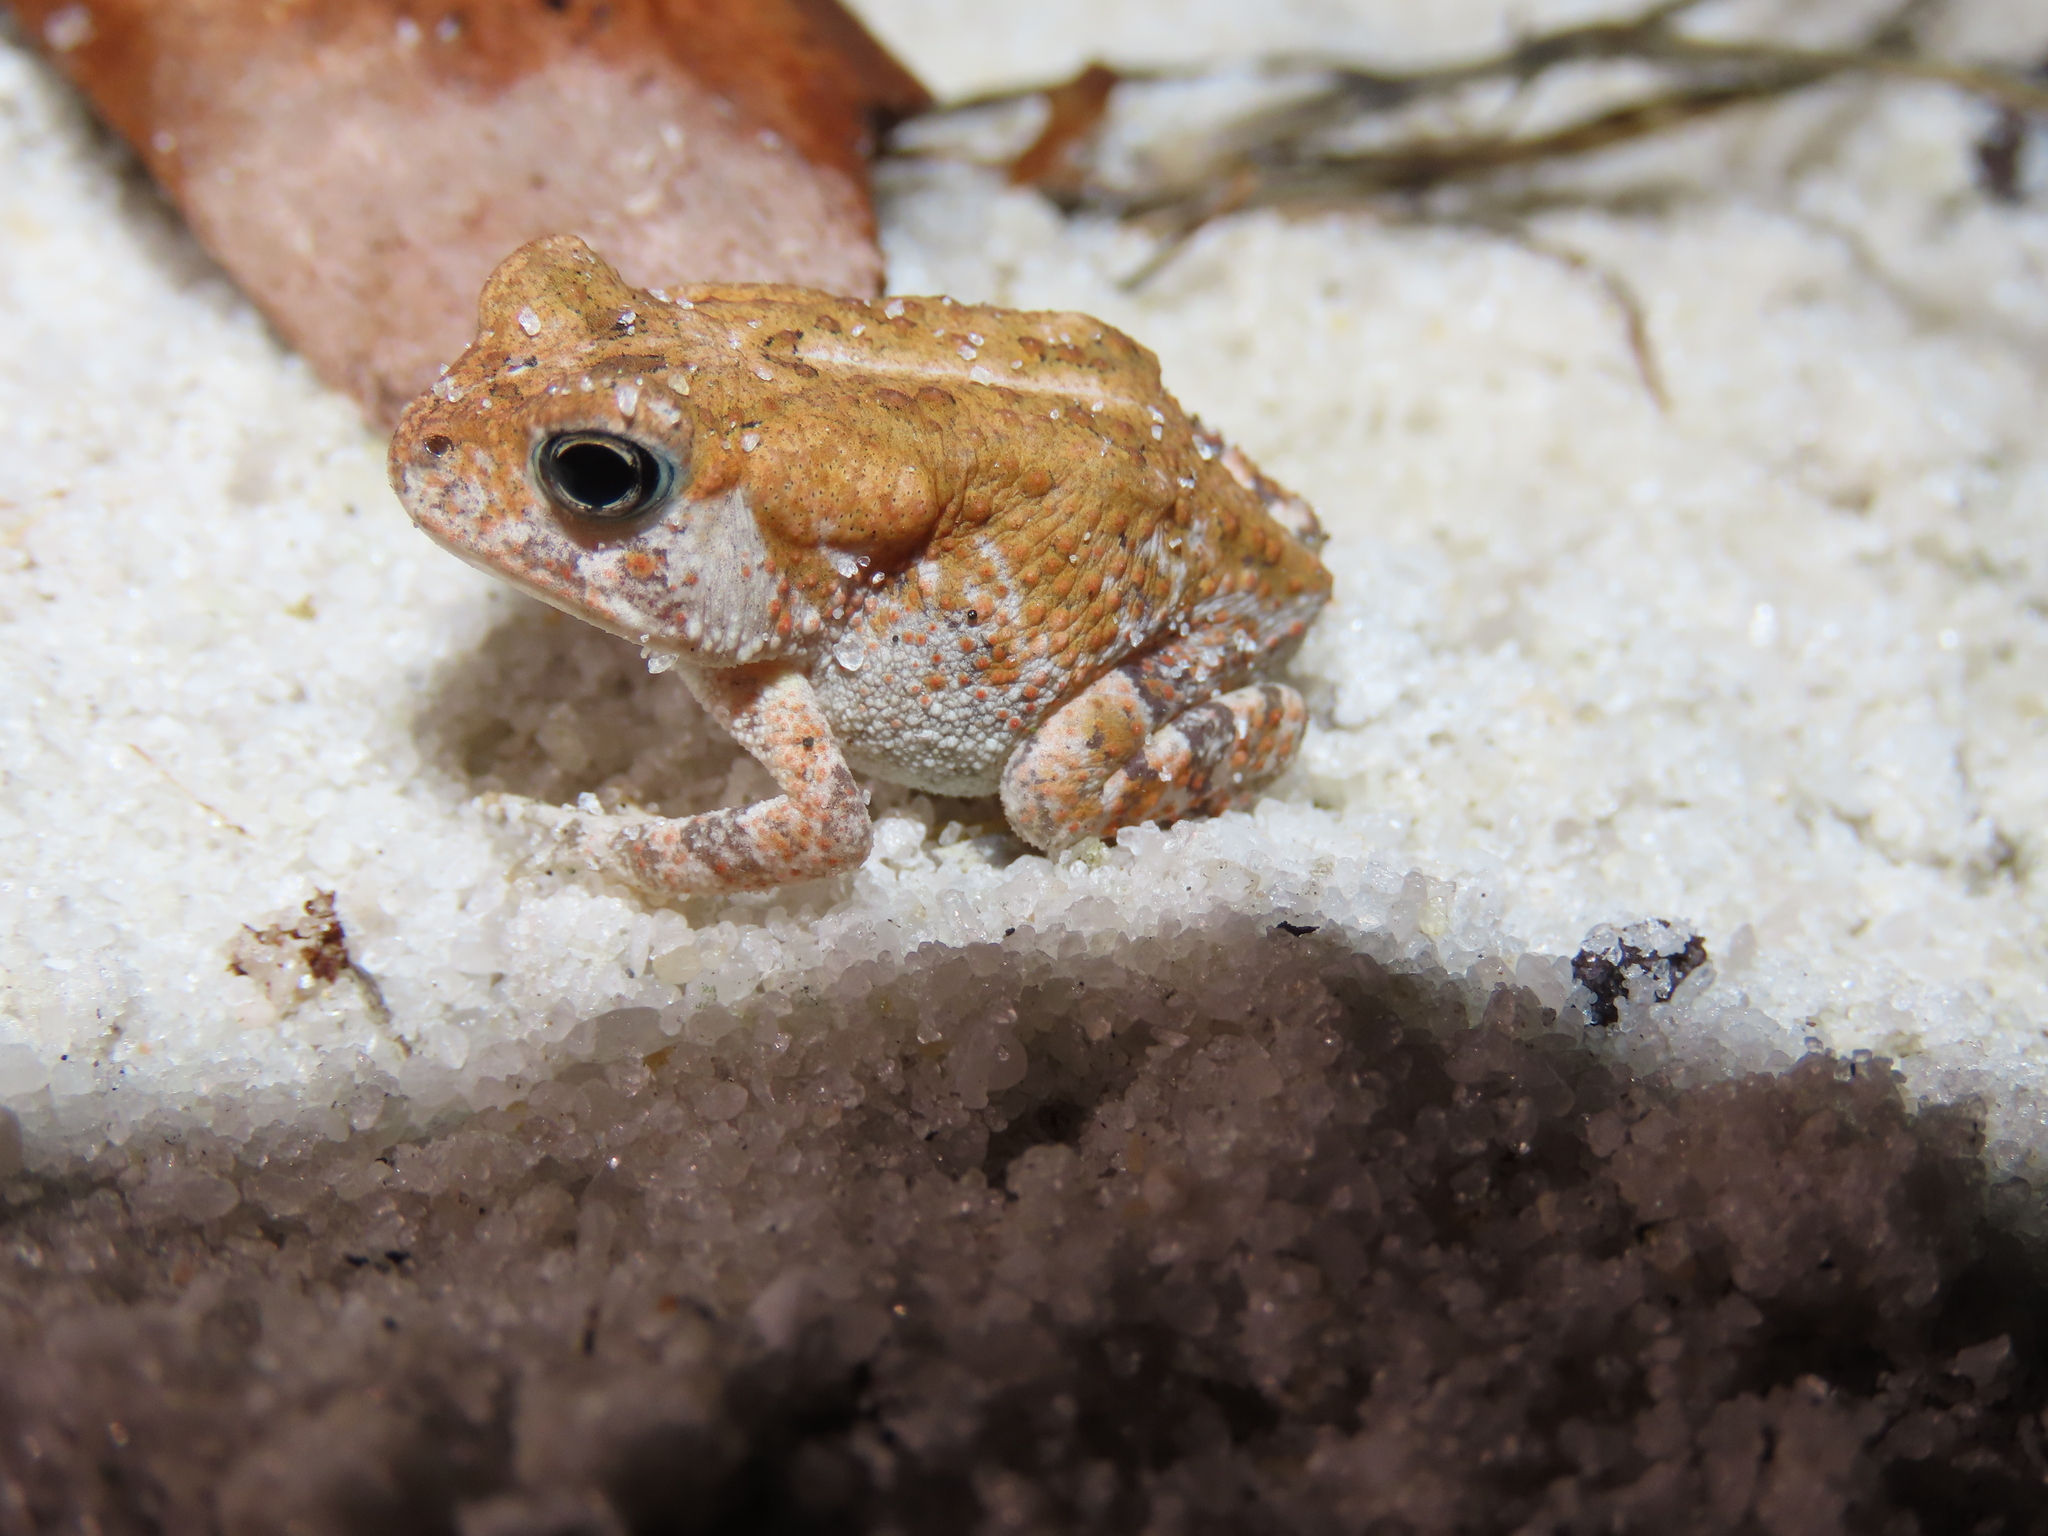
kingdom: Animalia
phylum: Chordata
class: Amphibia
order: Anura
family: Bufonidae
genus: Anaxyrus
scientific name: Anaxyrus terrestris
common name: Southern toad
